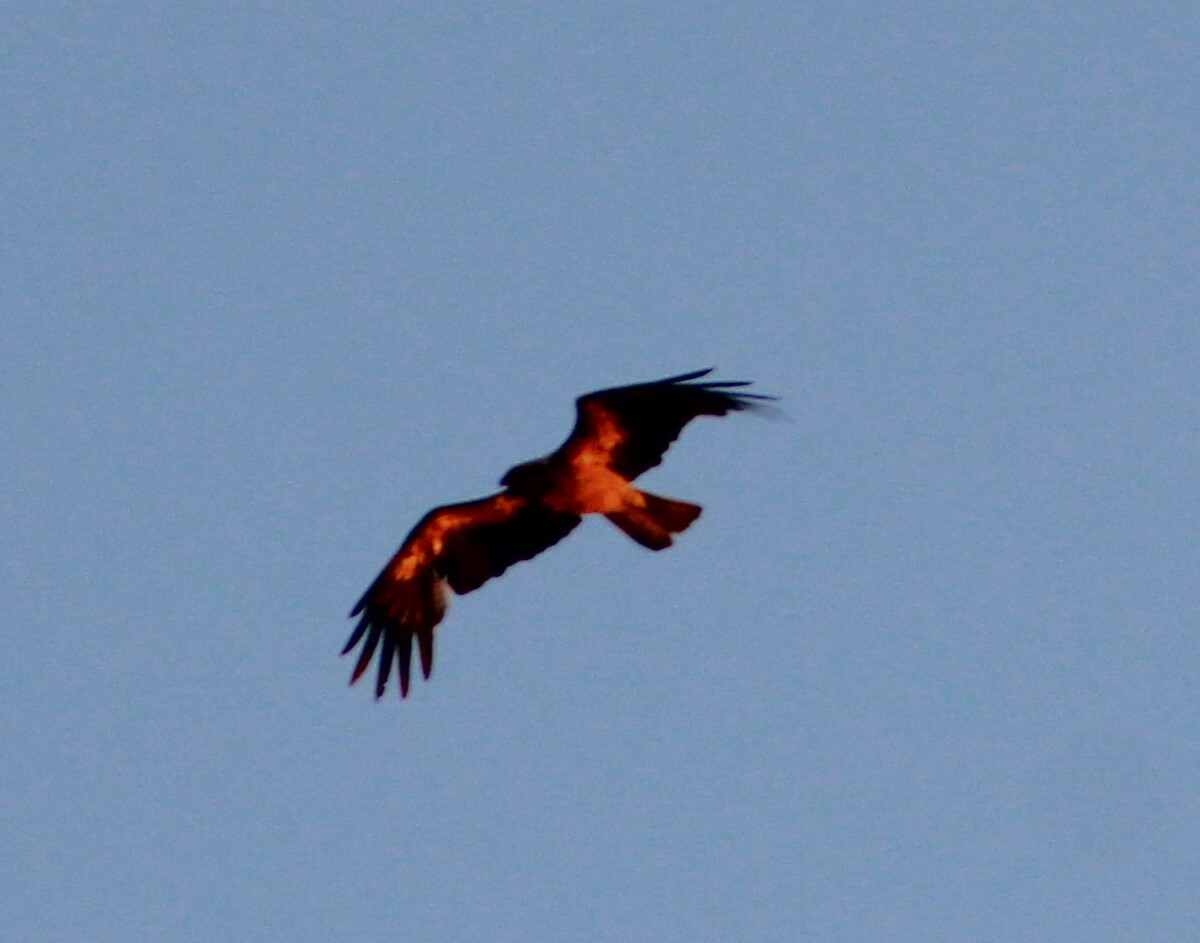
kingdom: Animalia
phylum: Chordata
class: Aves
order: Accipitriformes
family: Accipitridae
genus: Haliastur
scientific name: Haliastur sphenurus
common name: Whistling kite
